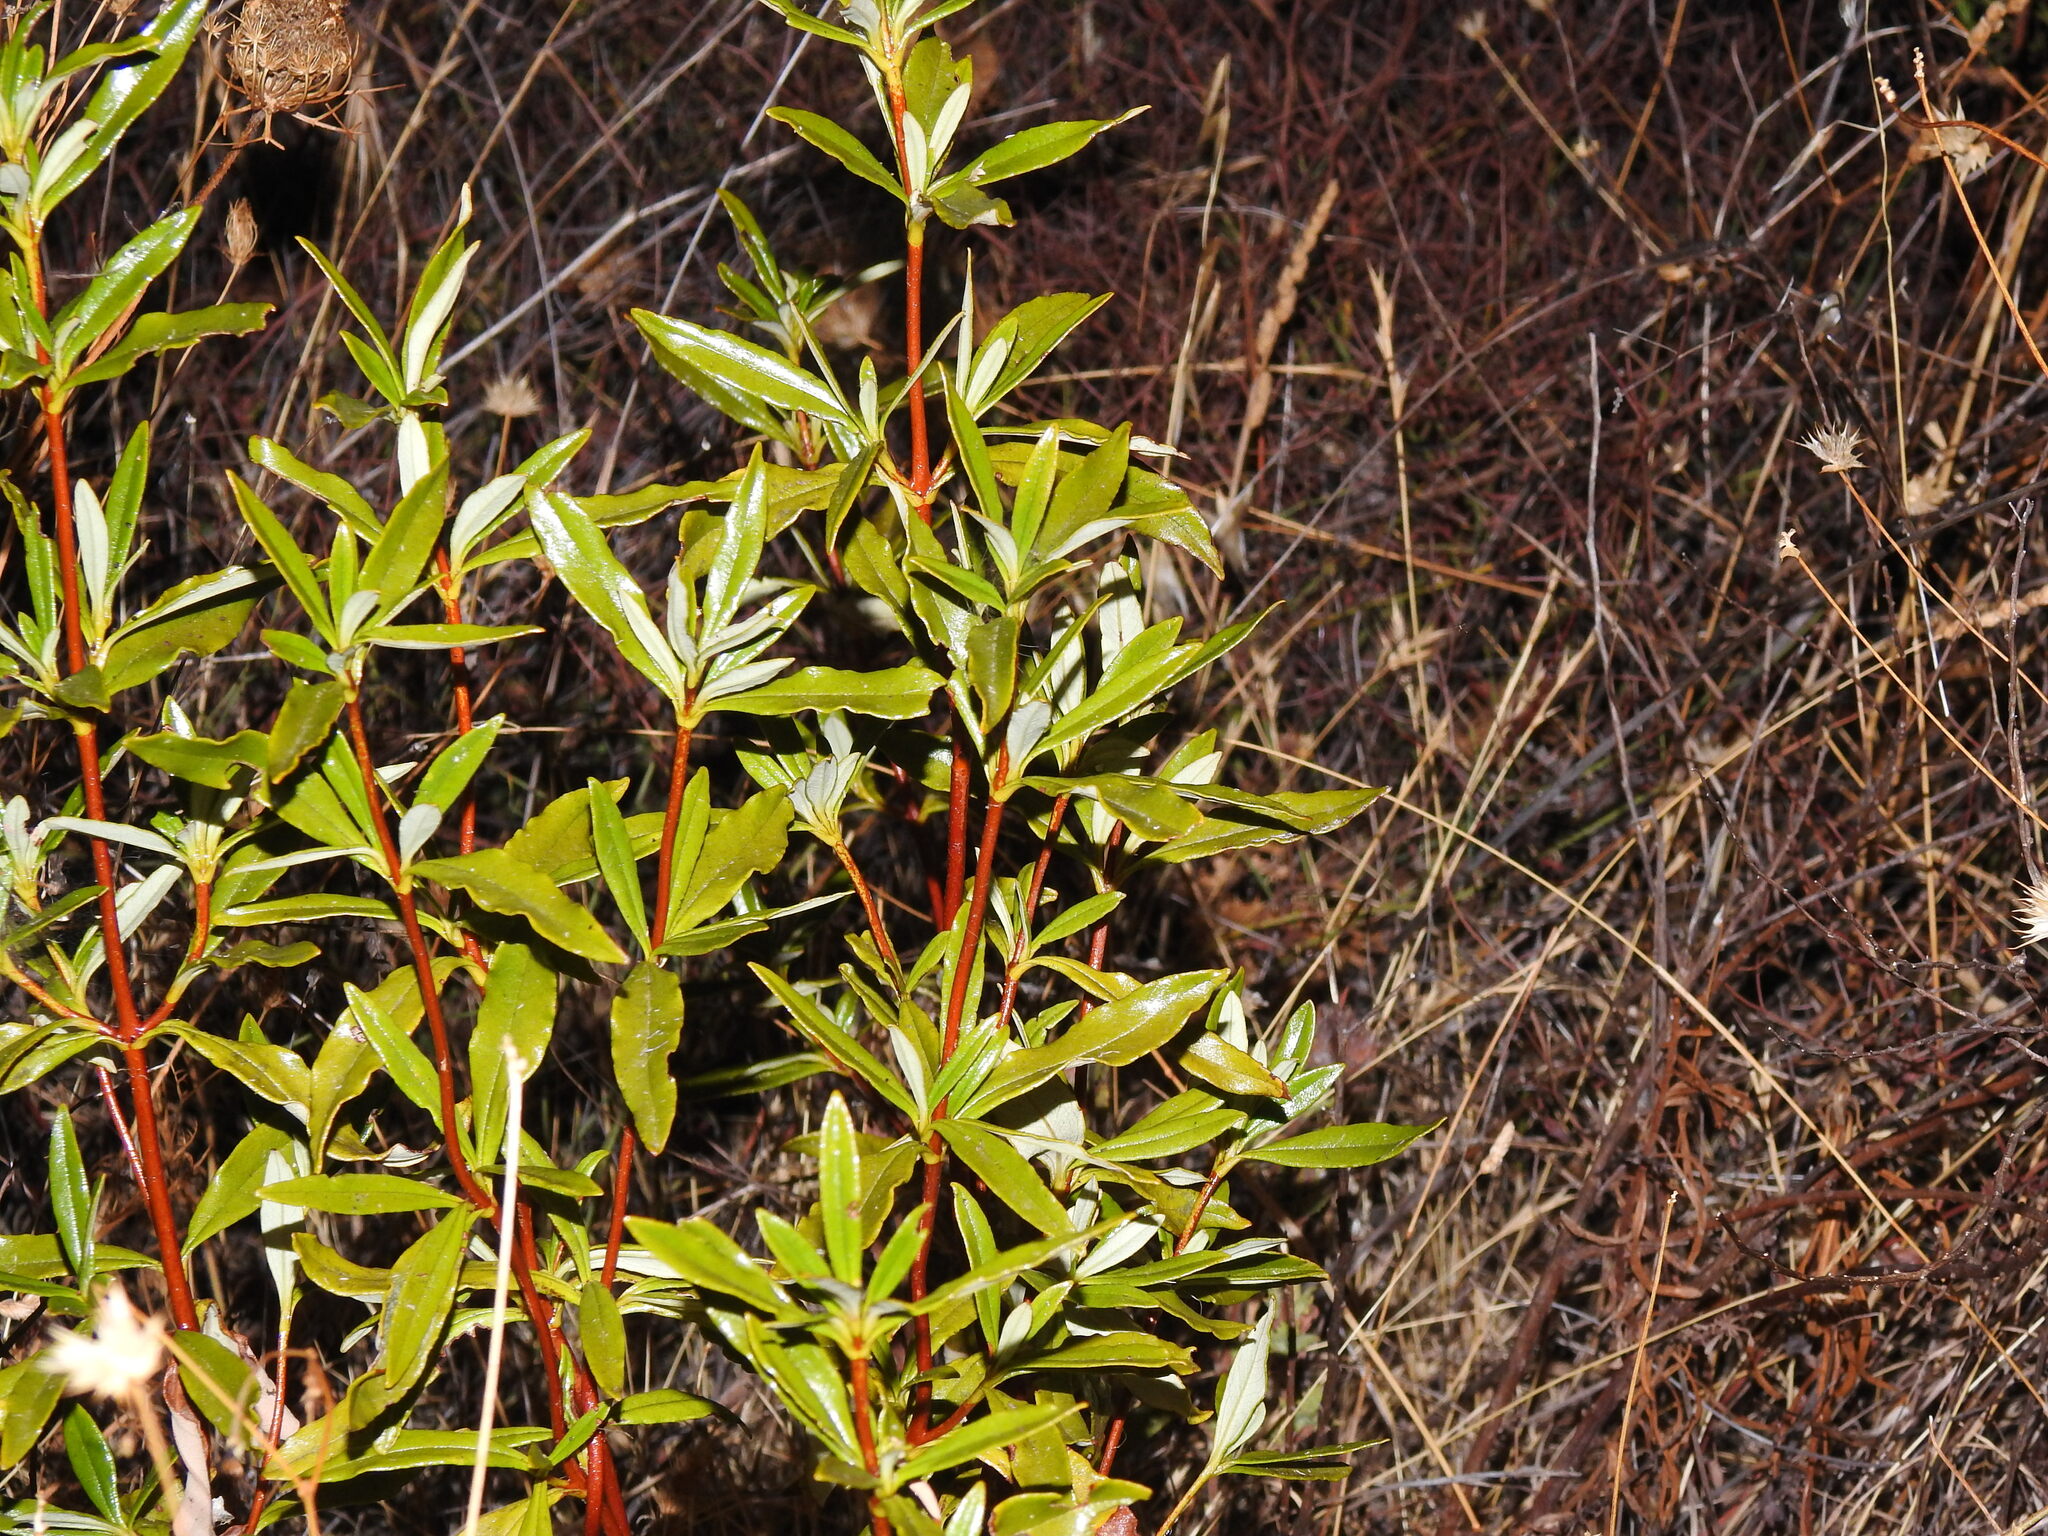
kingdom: Plantae
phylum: Tracheophyta
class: Magnoliopsida
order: Malvales
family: Cistaceae
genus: Cistus
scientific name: Cistus ladanifer
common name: Common gum cistus
